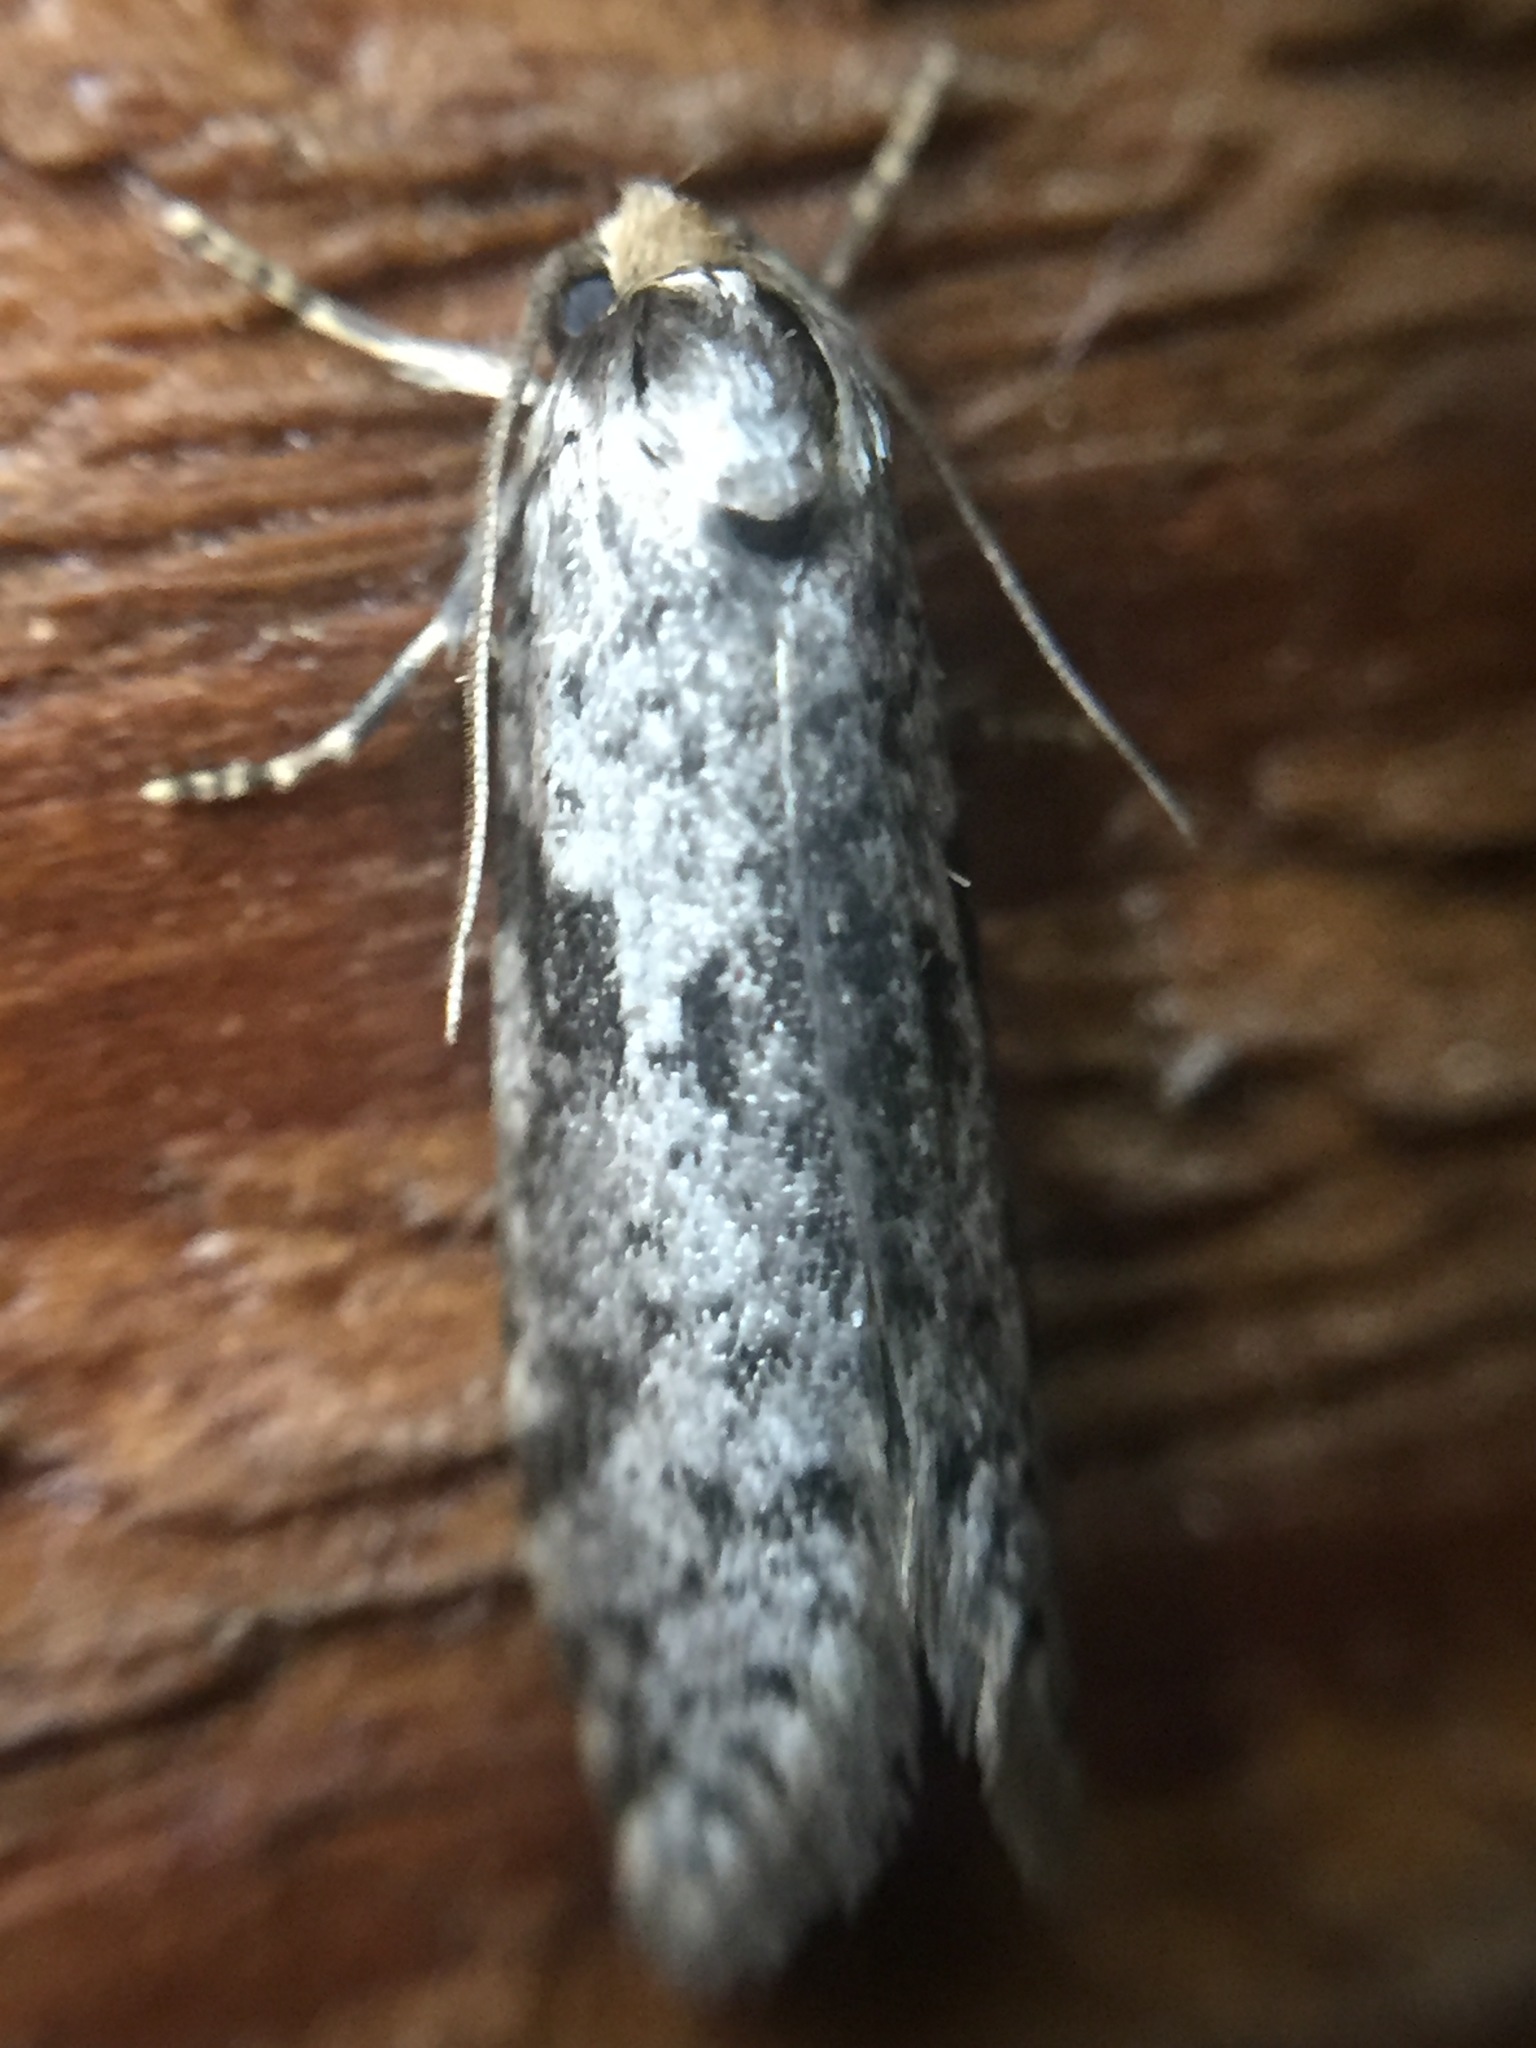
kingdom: Animalia
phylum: Arthropoda
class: Insecta
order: Lepidoptera
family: Psychidae
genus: Lepidoscia
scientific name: Lepidoscia protorna
